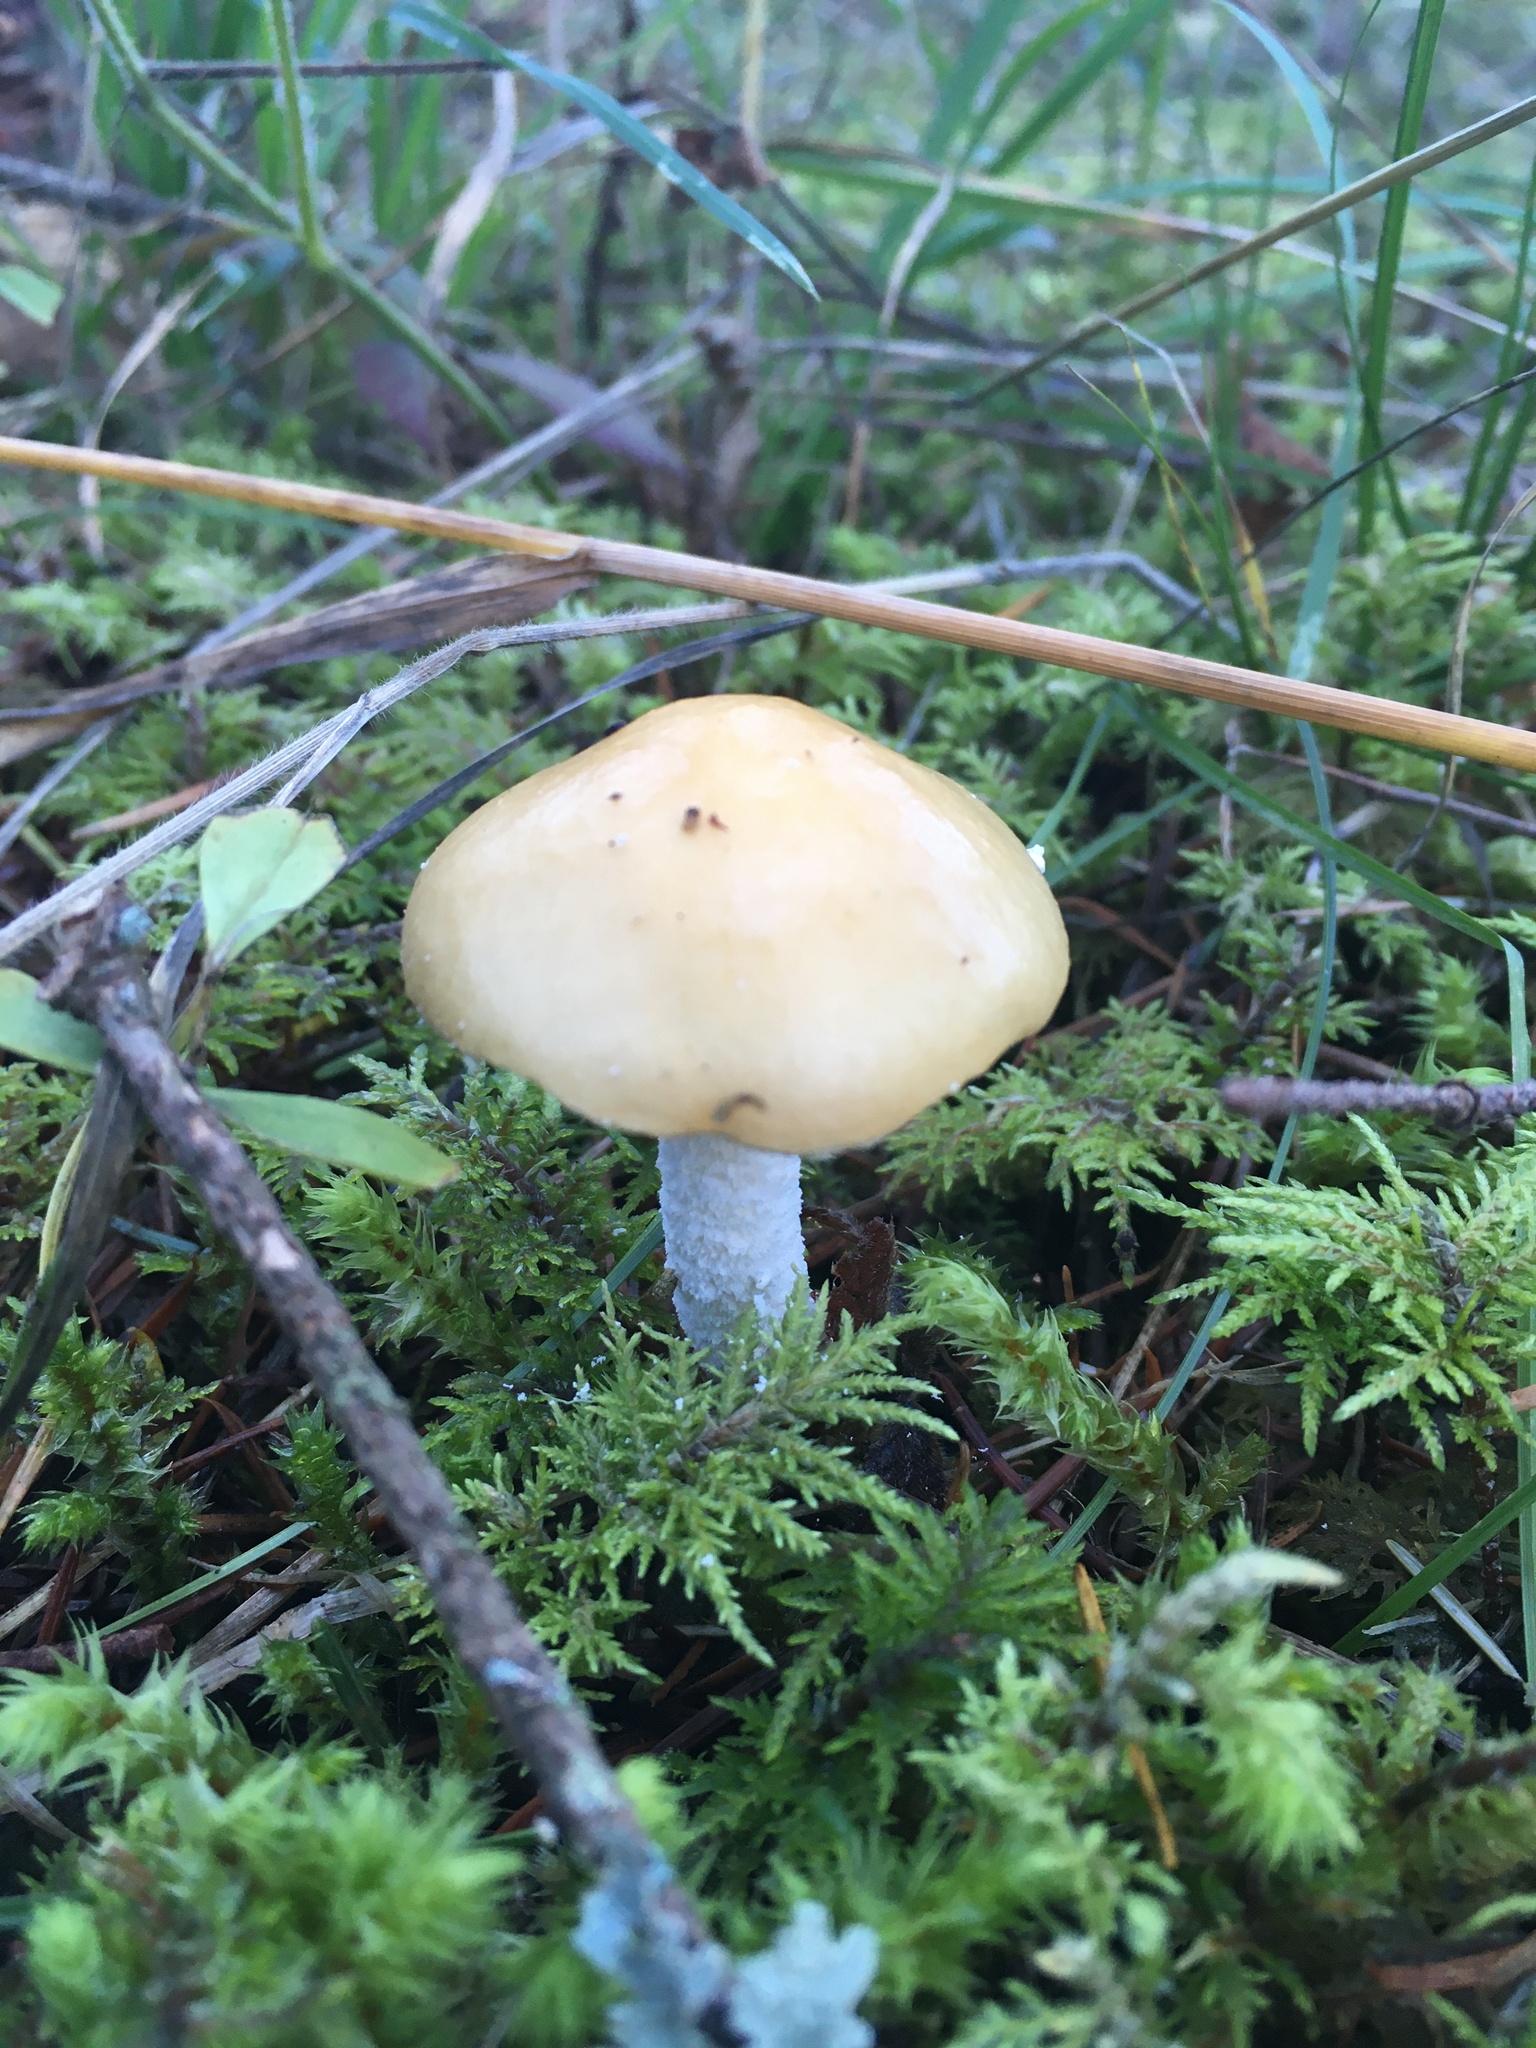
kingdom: Fungi
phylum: Basidiomycota
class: Agaricomycetes
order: Agaricales
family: Strophariaceae
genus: Stropharia
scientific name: Stropharia ambigua
